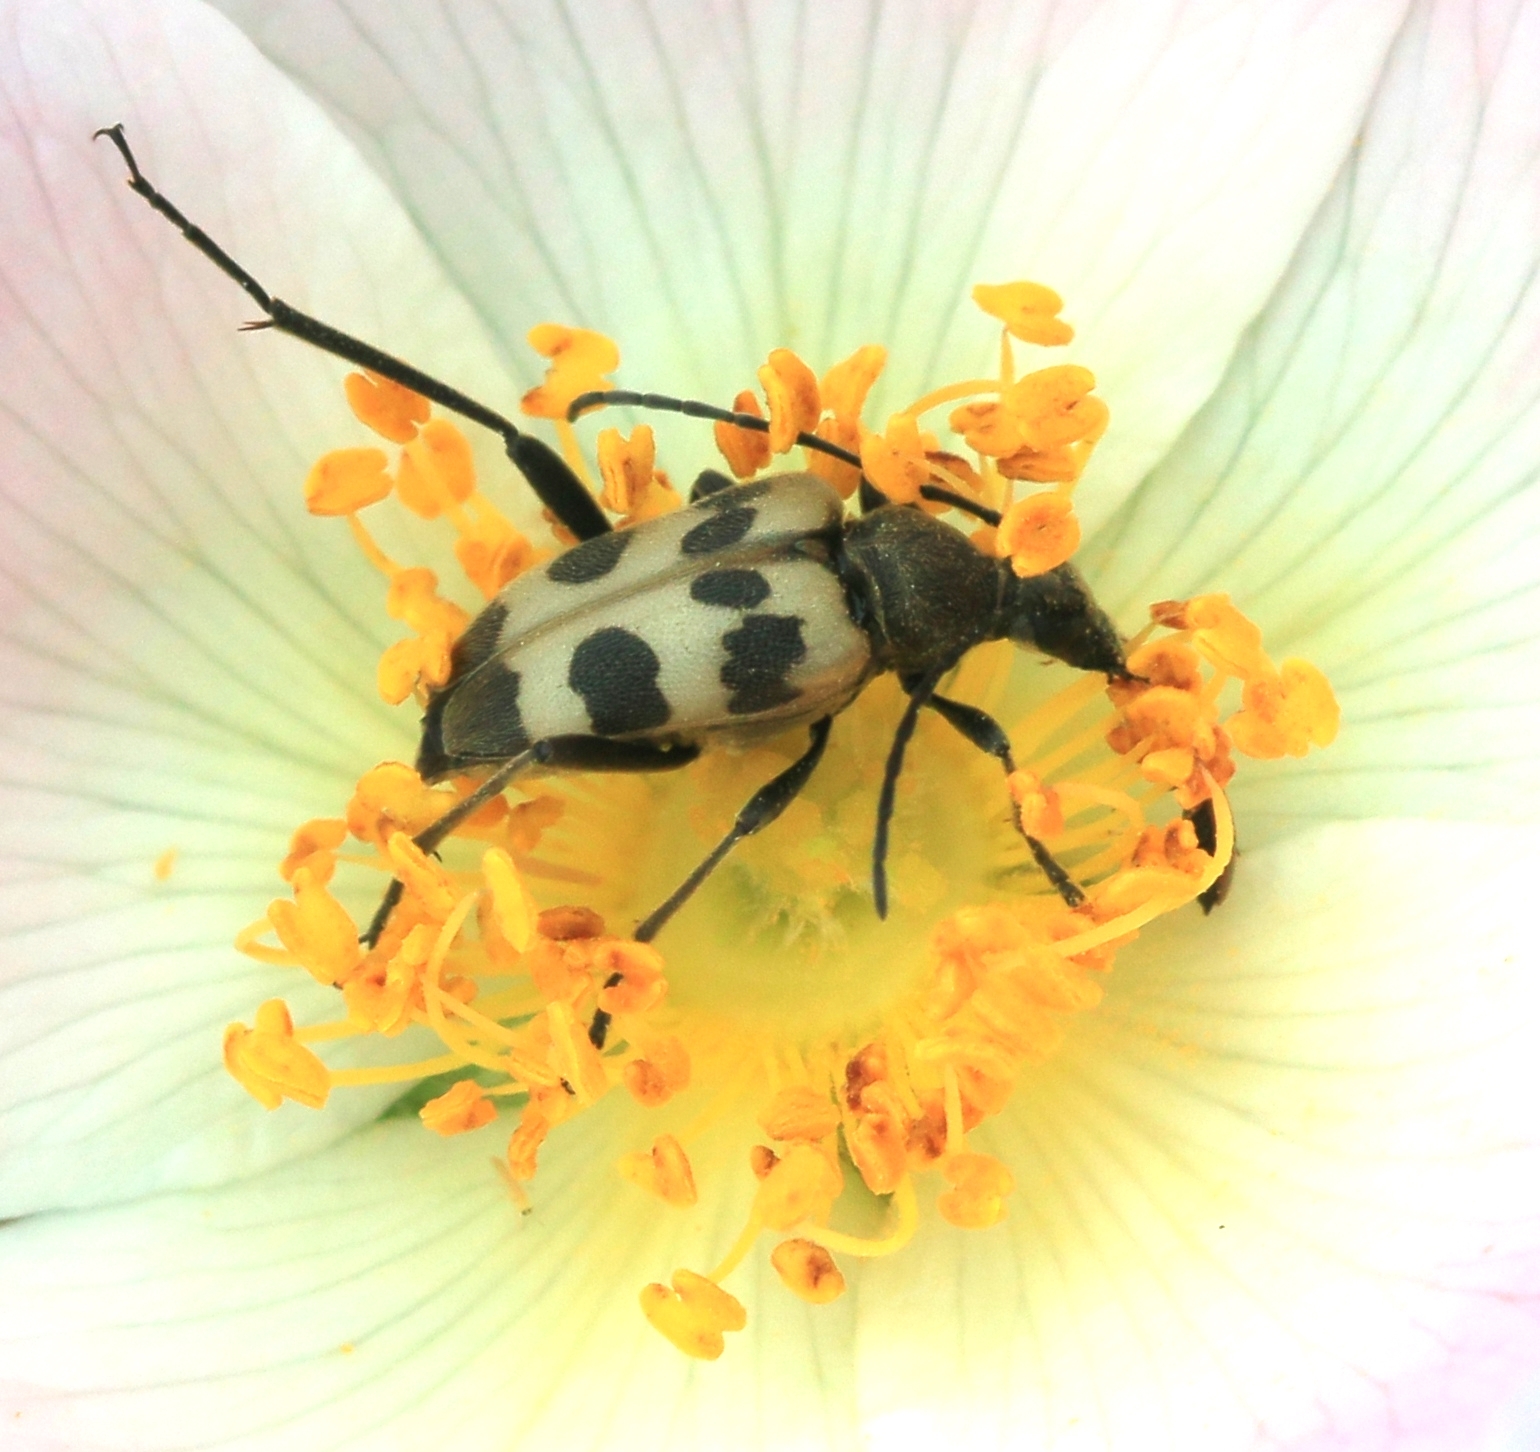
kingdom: Animalia
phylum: Arthropoda
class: Insecta
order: Coleoptera
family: Cerambycidae
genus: Pachytodes
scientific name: Pachytodes cerambyciformis
